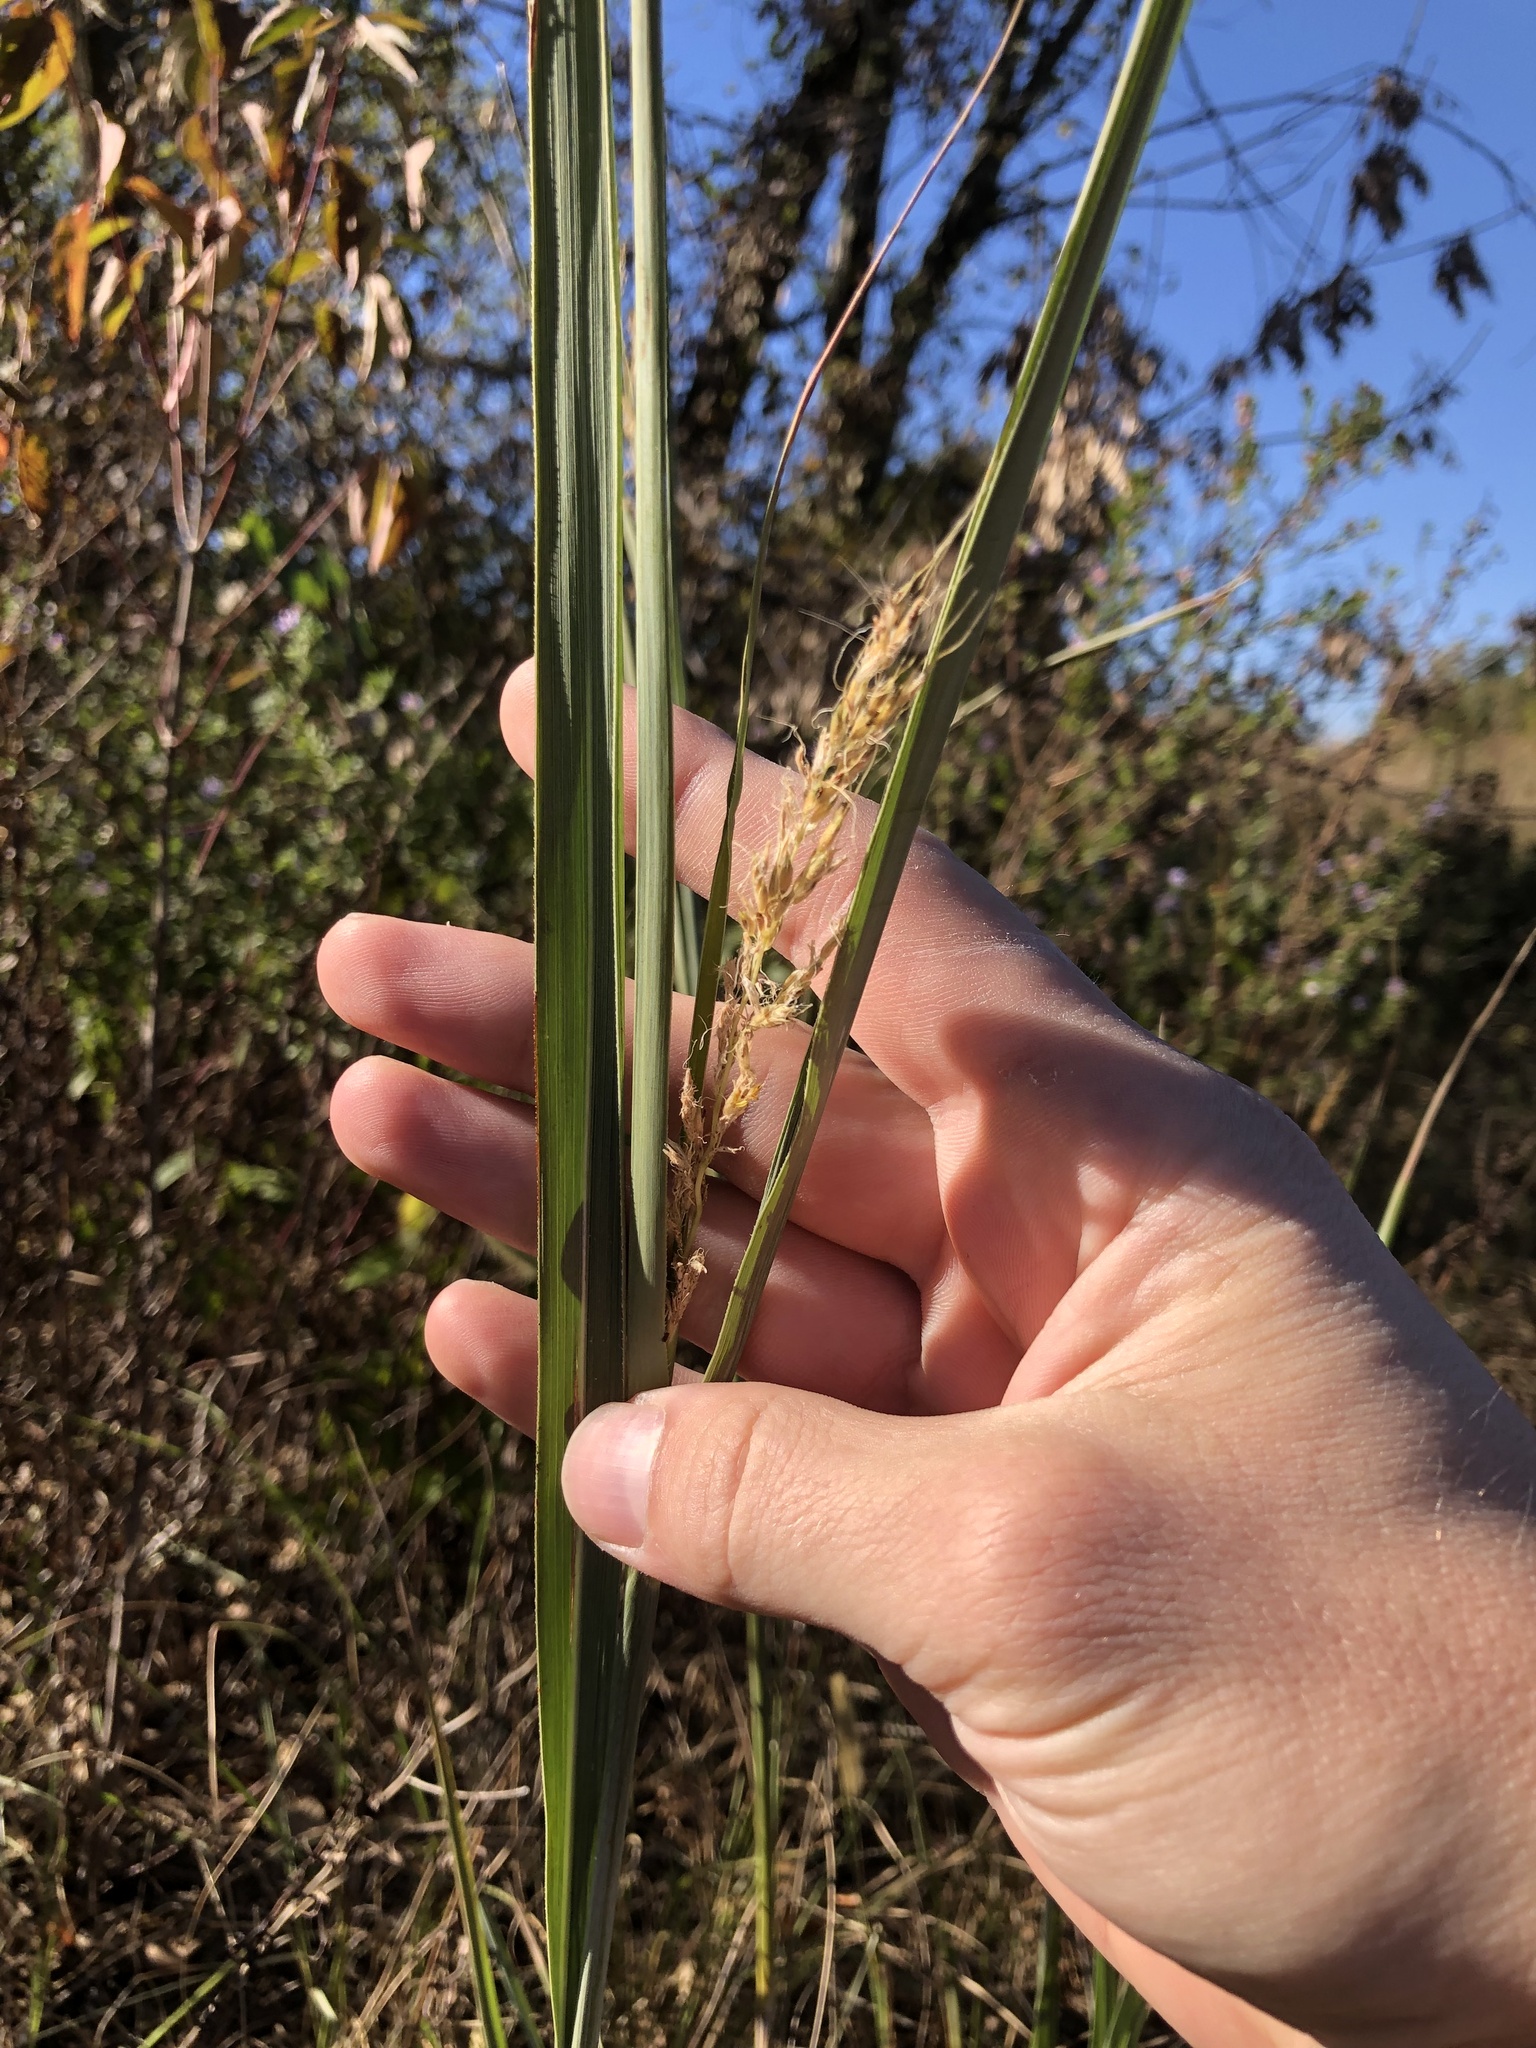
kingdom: Plantae
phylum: Tracheophyta
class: Liliopsida
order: Poales
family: Poaceae
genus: Sorghastrum
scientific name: Sorghastrum nutans
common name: Indian grass
